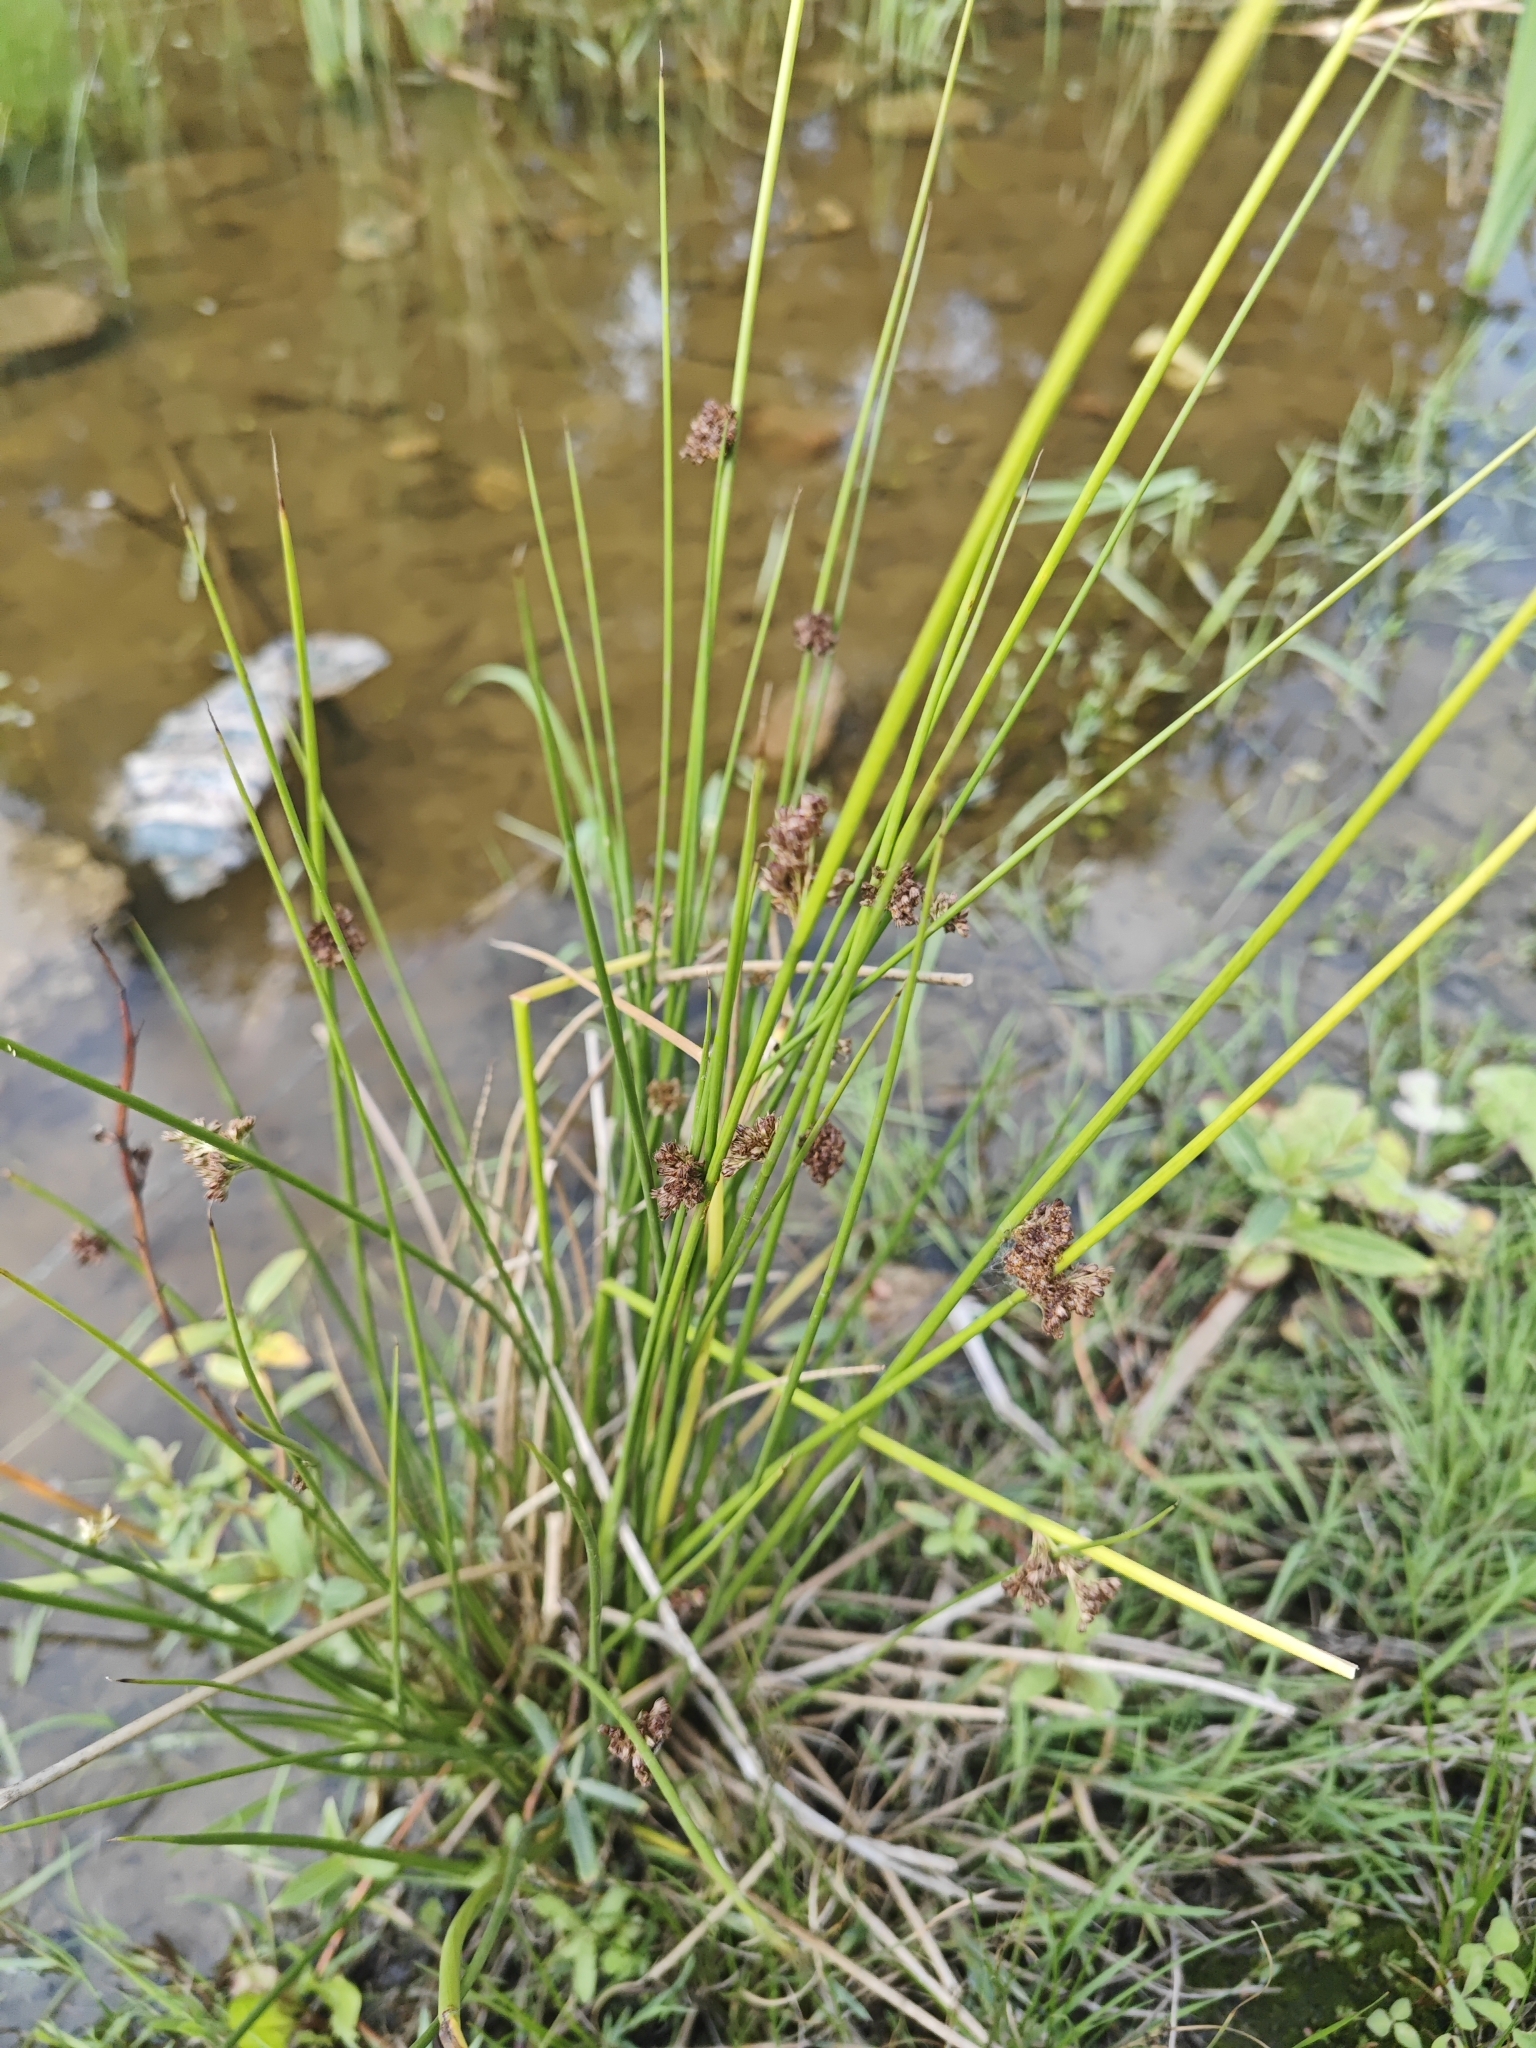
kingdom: Plantae
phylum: Tracheophyta
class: Liliopsida
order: Poales
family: Juncaceae
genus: Juncus
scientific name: Juncus effusus
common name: Soft rush
